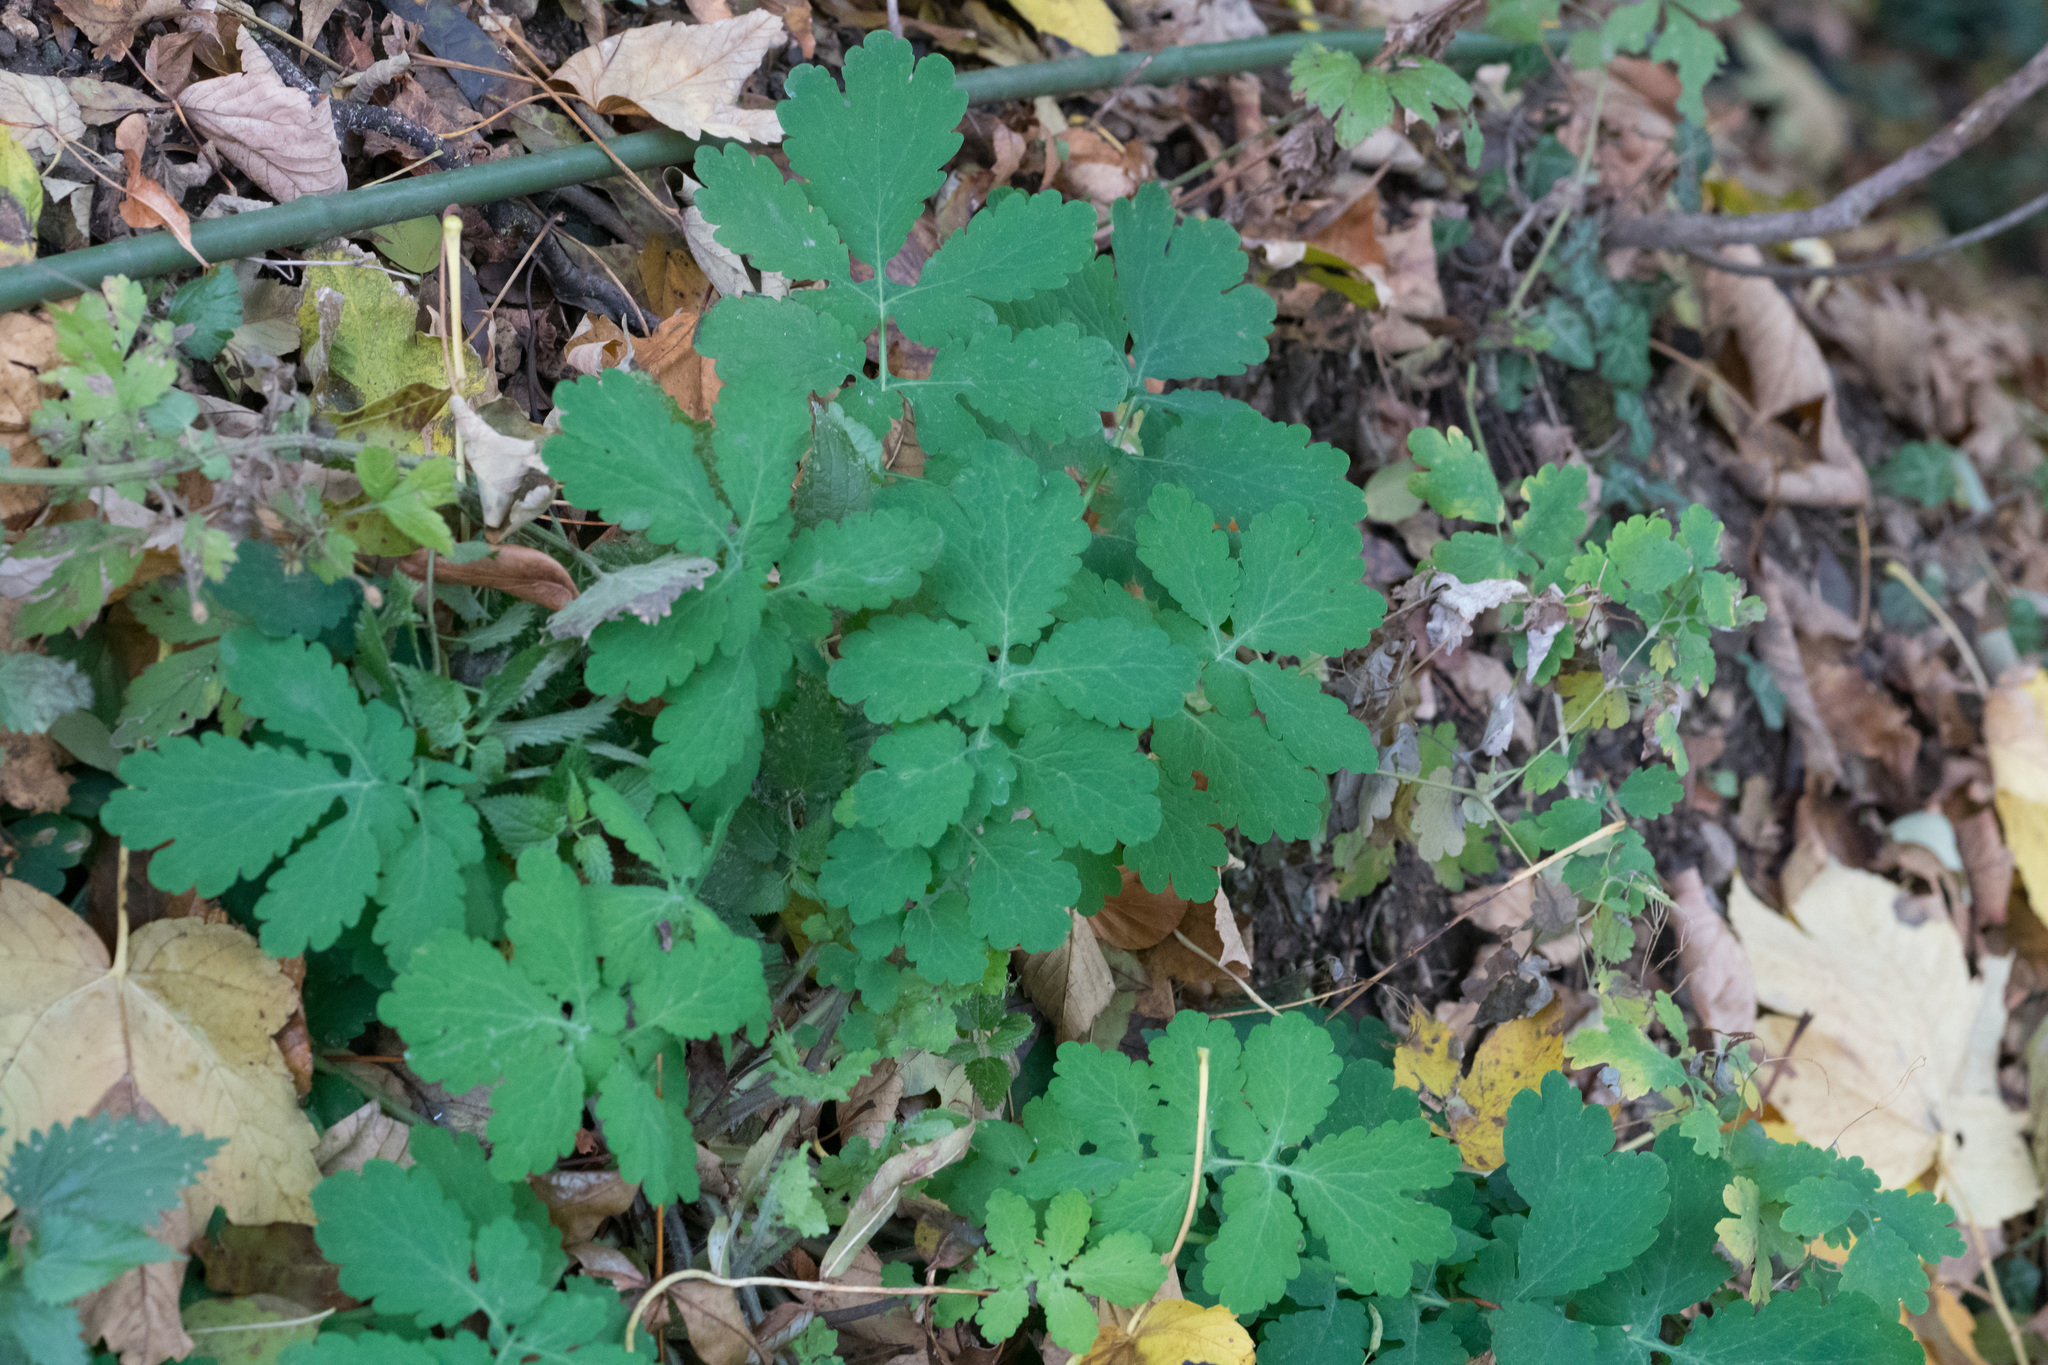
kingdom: Plantae
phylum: Tracheophyta
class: Magnoliopsida
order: Ranunculales
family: Papaveraceae
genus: Chelidonium
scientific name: Chelidonium majus
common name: Greater celandine
